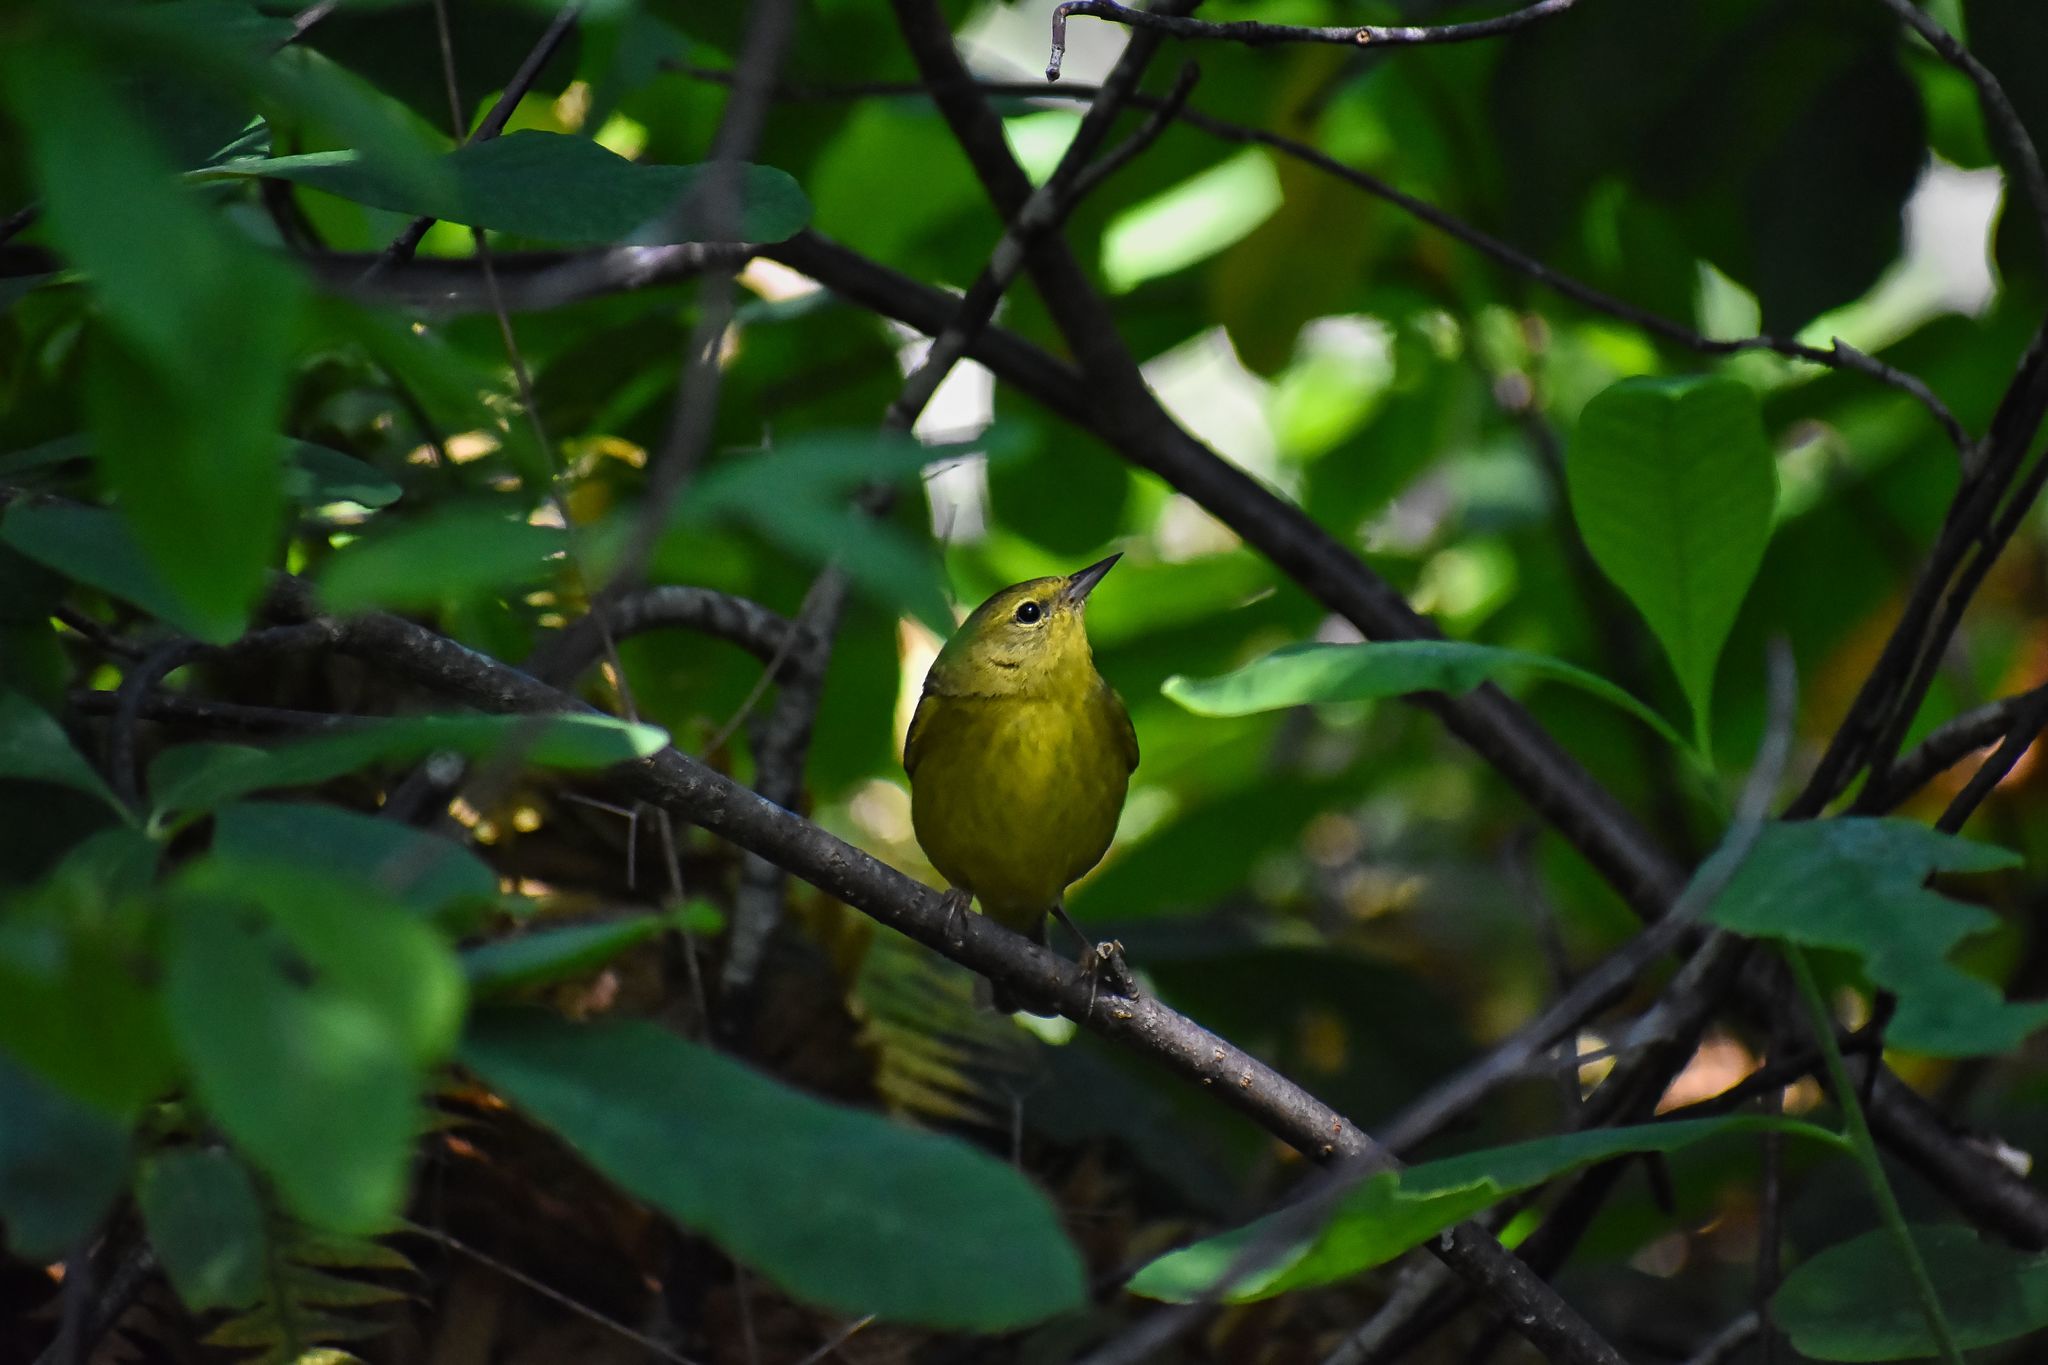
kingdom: Animalia
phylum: Chordata
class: Aves
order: Passeriformes
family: Parulidae
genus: Leiothlypis
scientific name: Leiothlypis celata
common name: Orange-crowned warbler
